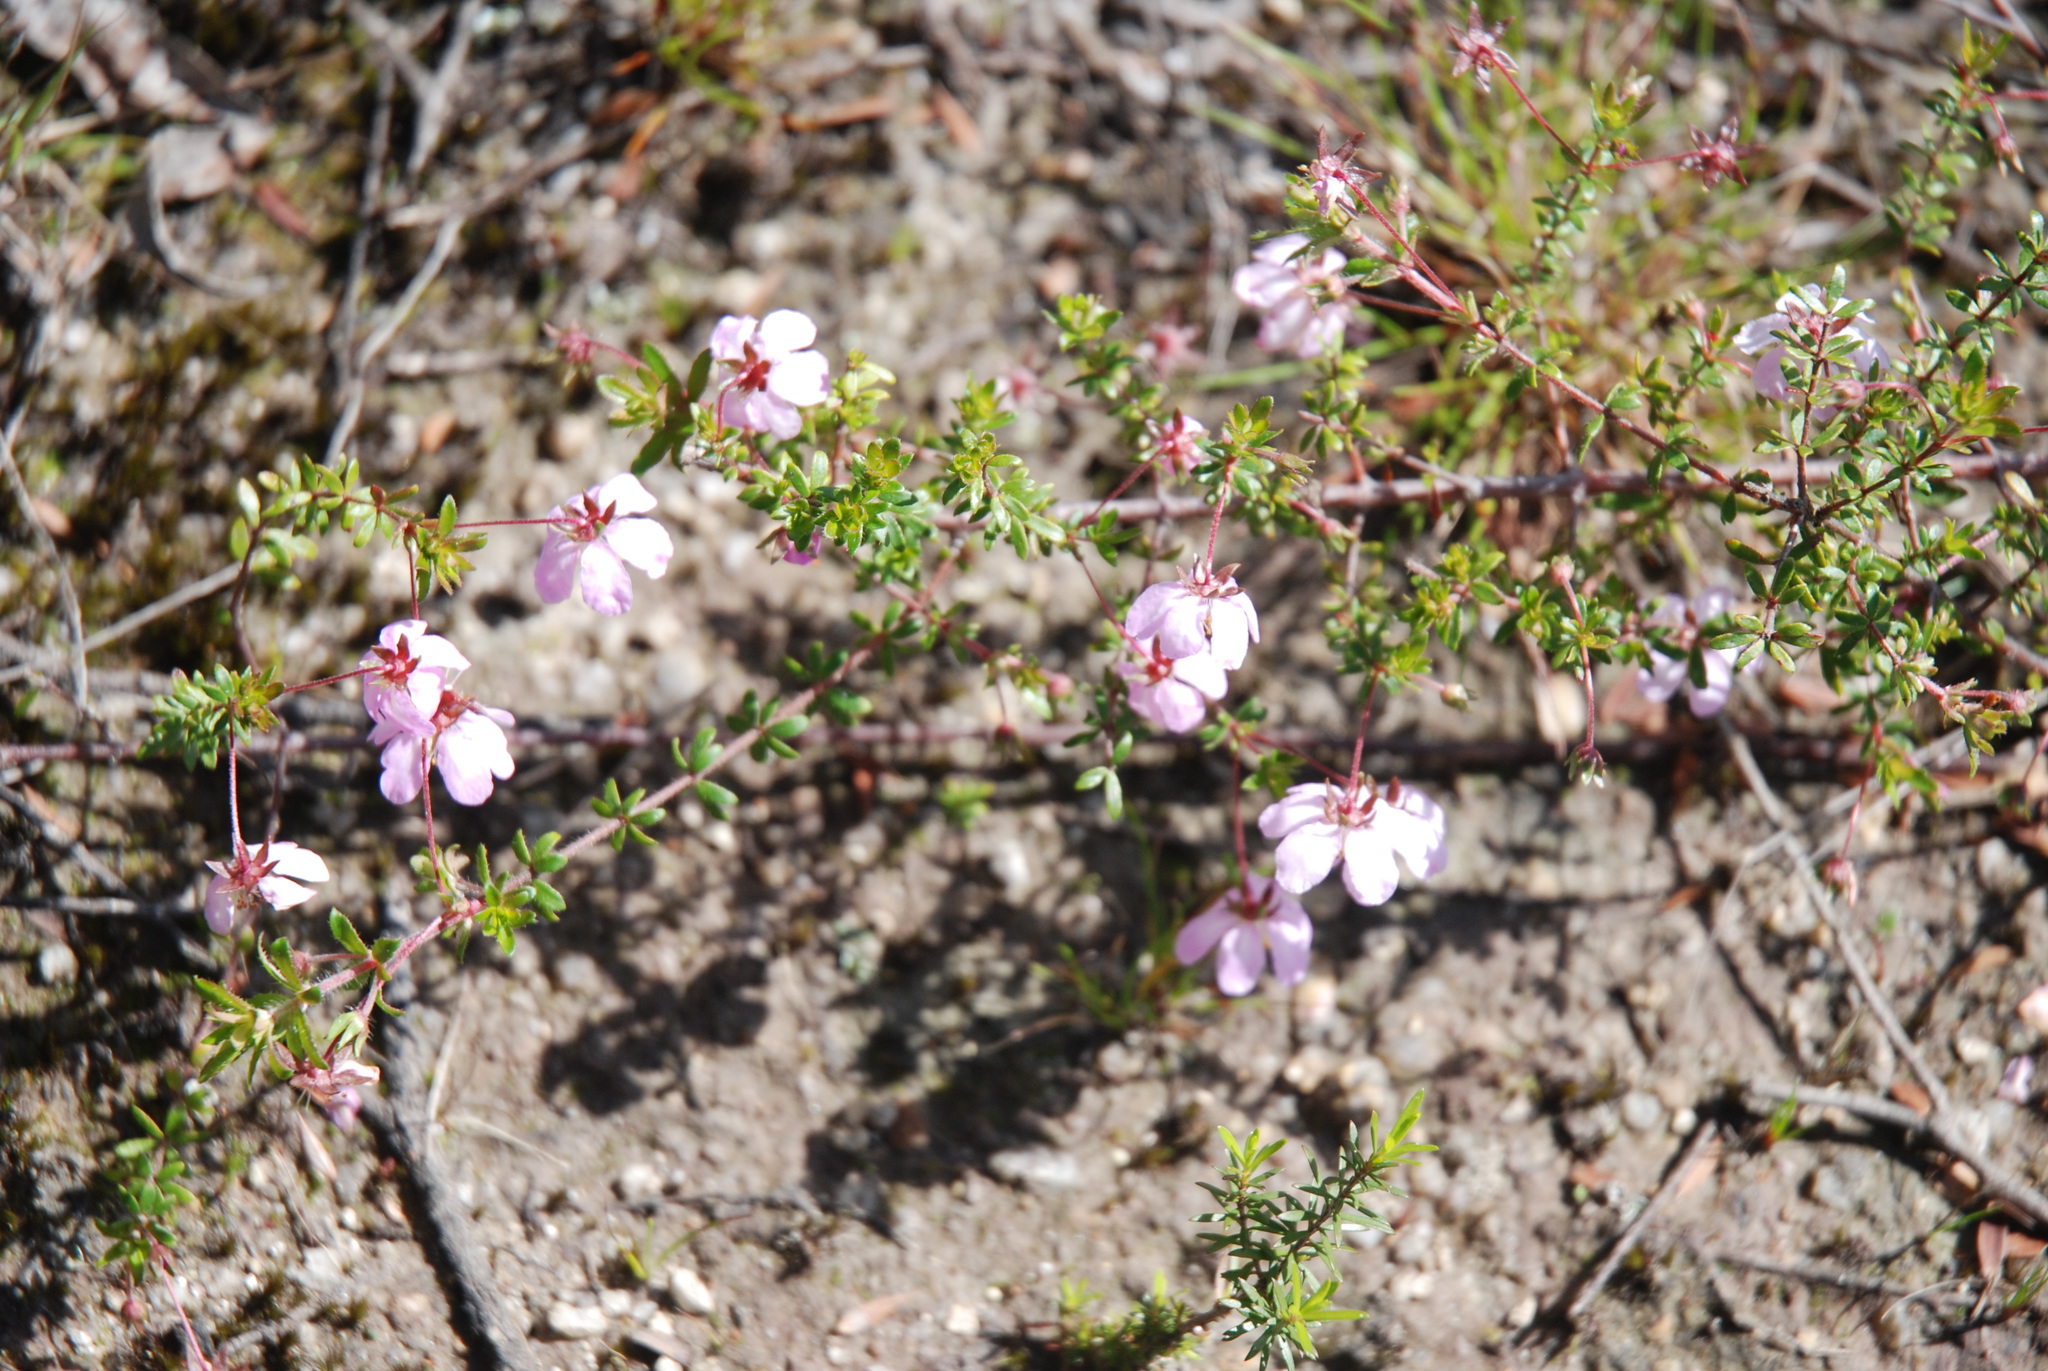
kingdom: Plantae
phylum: Tracheophyta
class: Magnoliopsida
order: Oxalidales
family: Cunoniaceae
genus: Bauera
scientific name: Bauera rubioides
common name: River-rose
